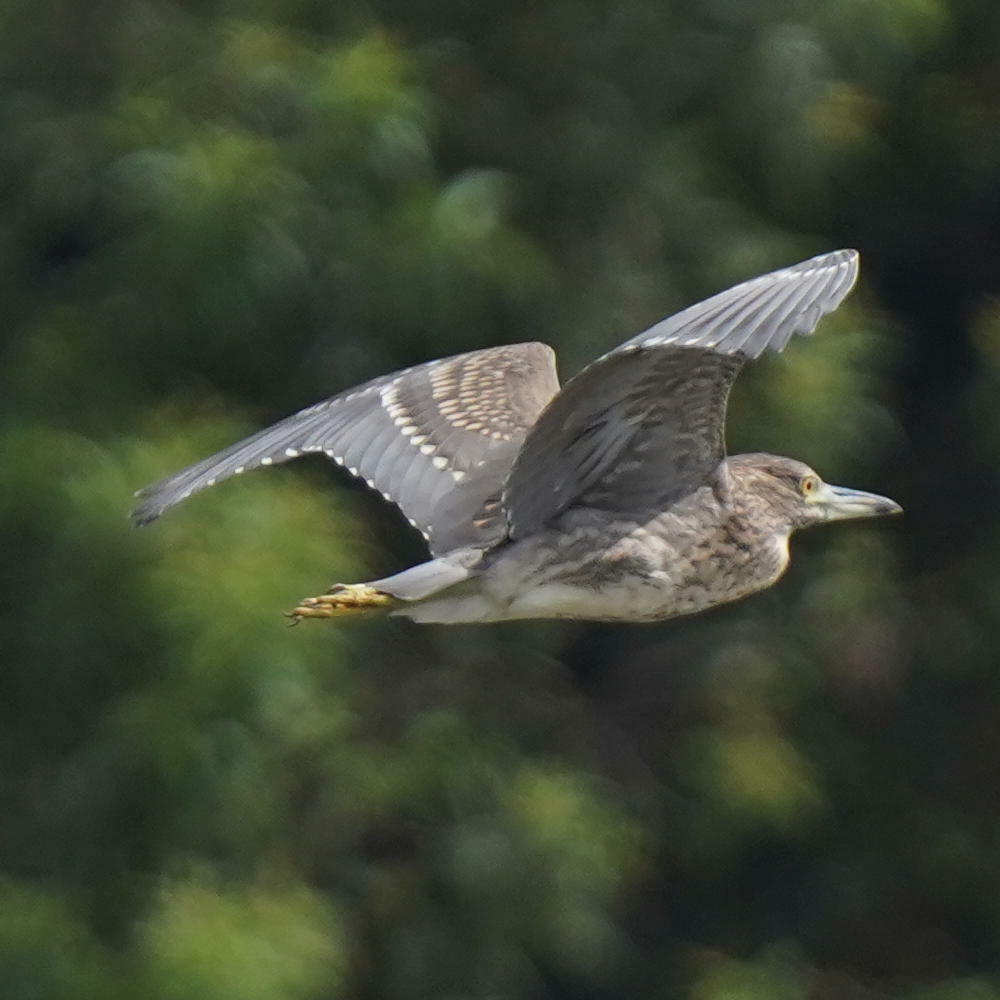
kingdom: Animalia
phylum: Chordata
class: Aves
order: Pelecaniformes
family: Ardeidae
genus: Nycticorax
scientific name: Nycticorax nycticorax
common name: Black-crowned night heron
